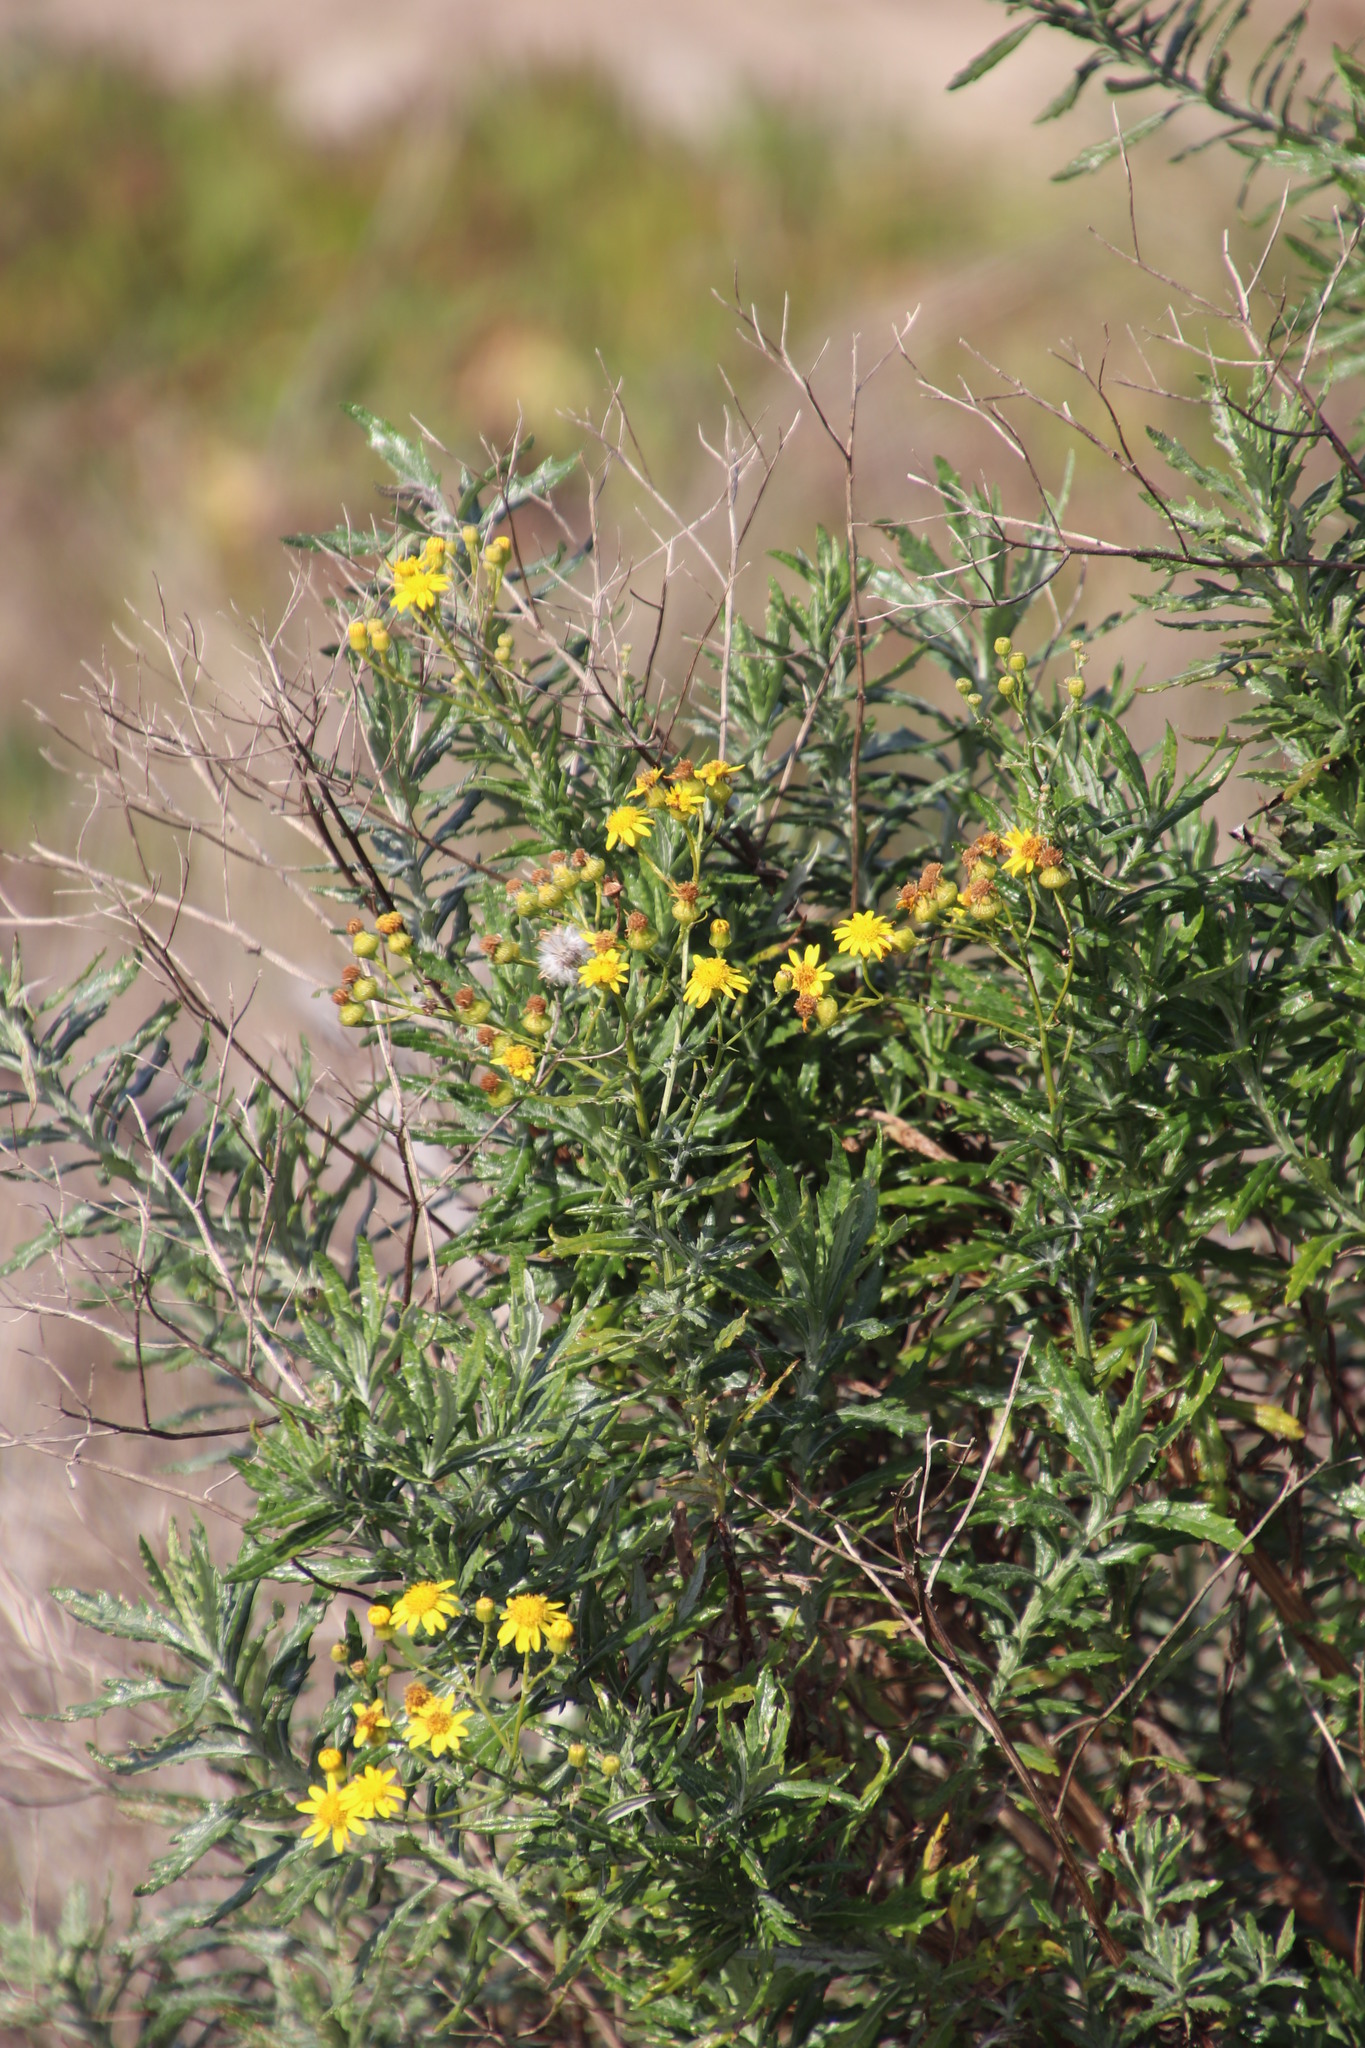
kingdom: Plantae
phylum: Tracheophyta
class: Magnoliopsida
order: Asterales
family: Asteraceae
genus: Senecio
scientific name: Senecio pterophorus
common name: Shoddy ragwort
